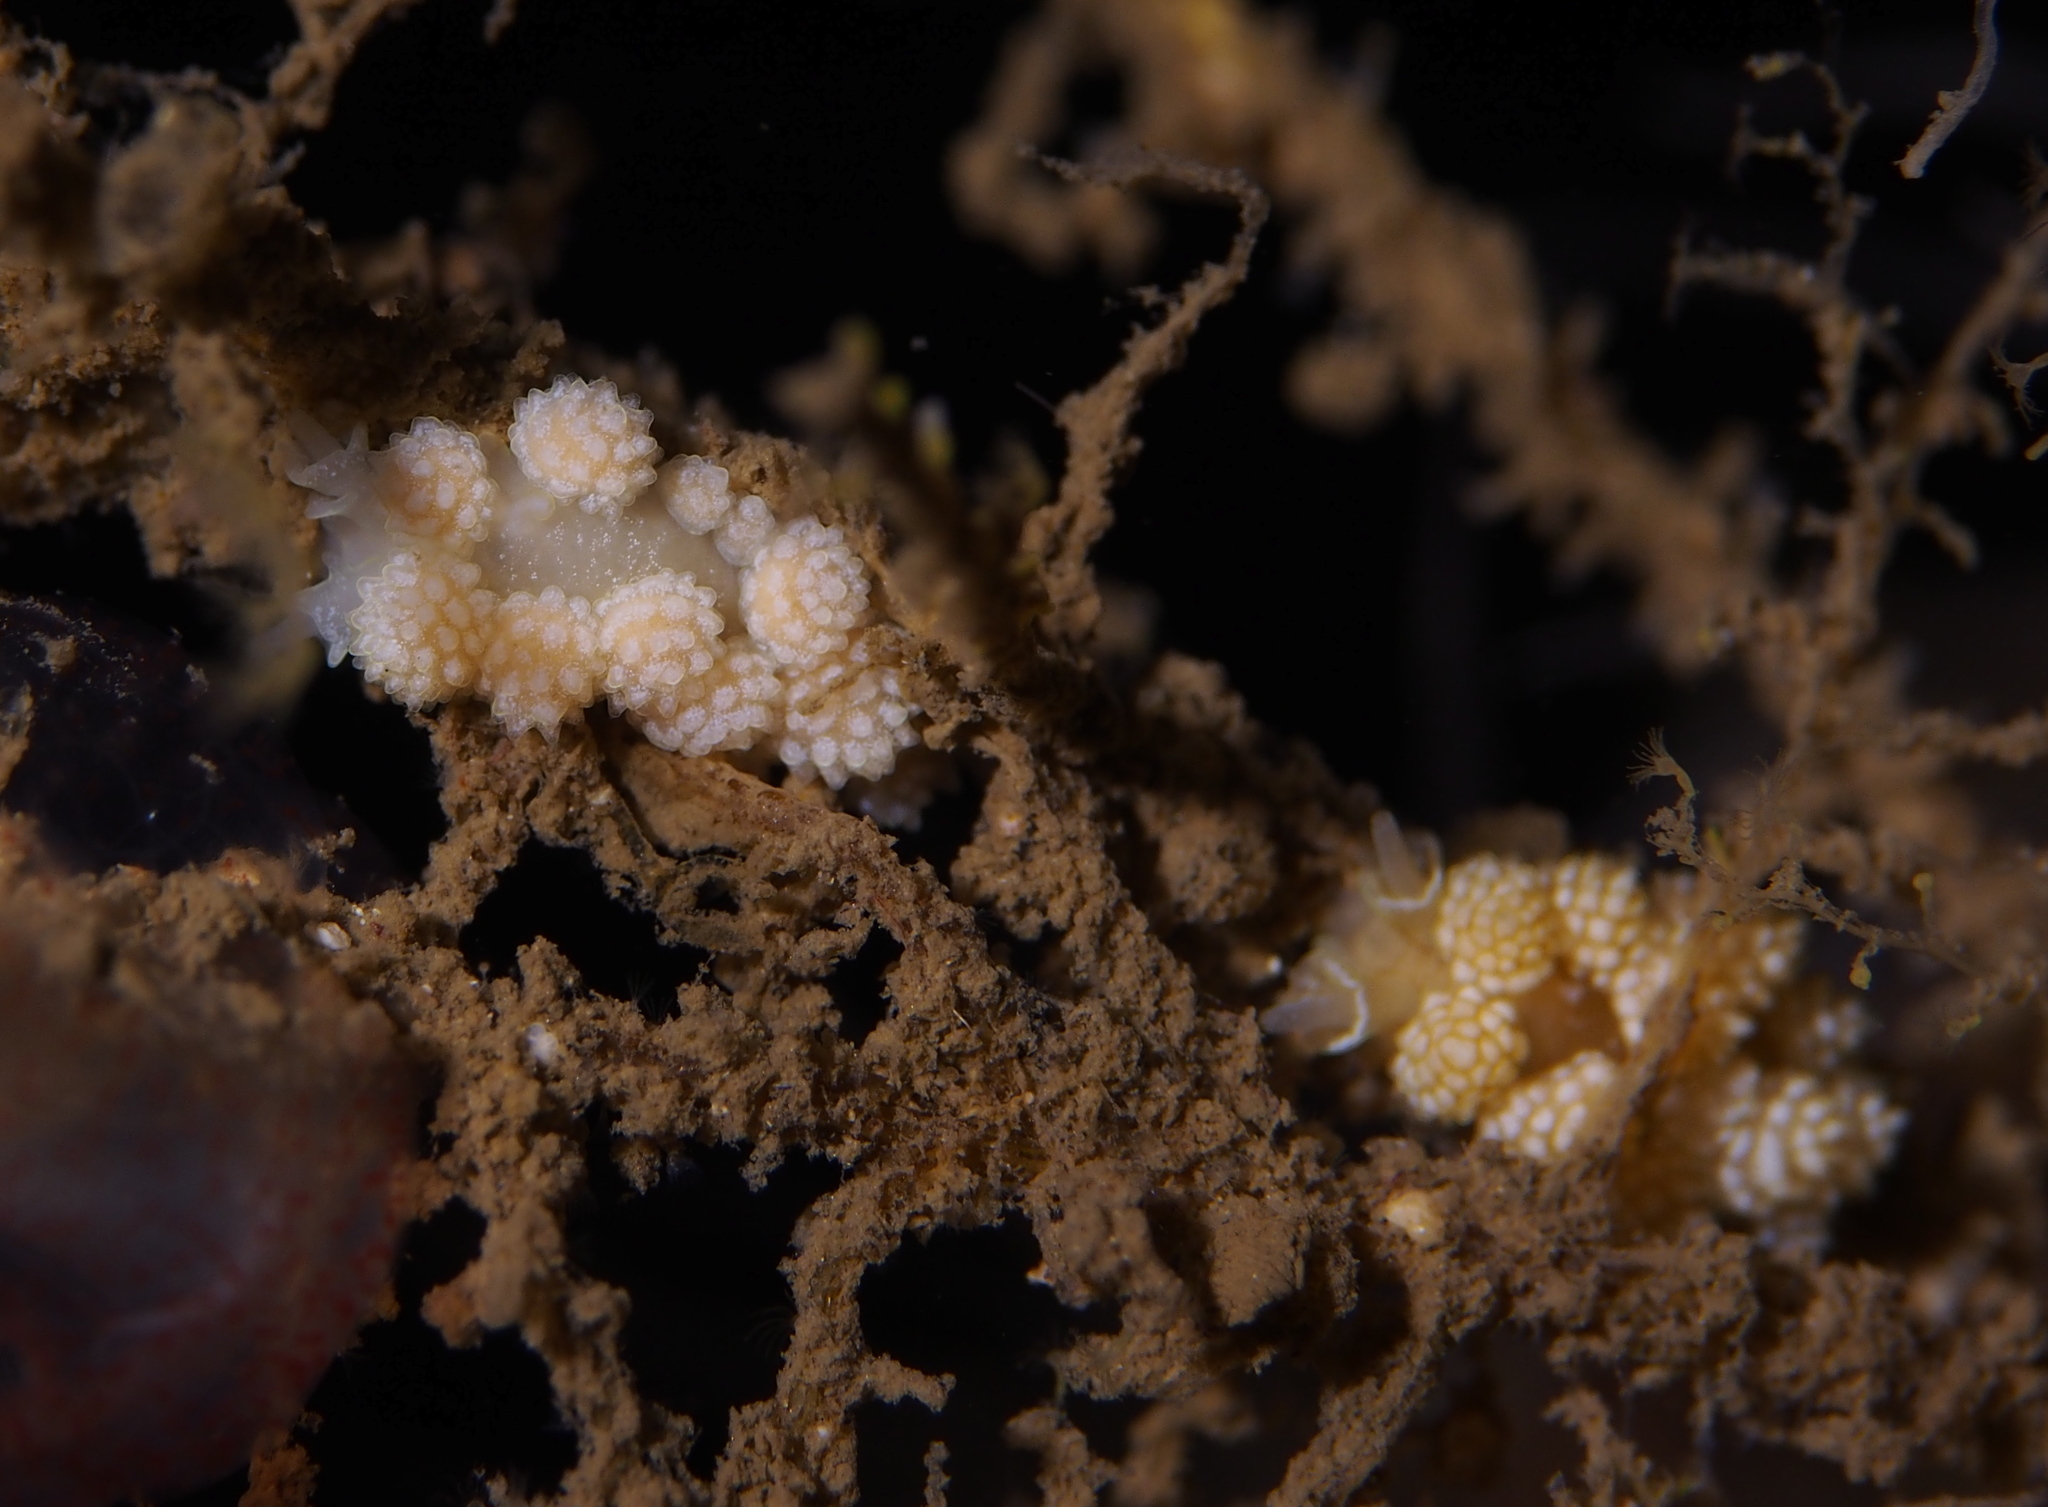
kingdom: Animalia
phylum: Mollusca
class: Gastropoda
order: Nudibranchia
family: Dotidae
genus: Doto
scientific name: Doto fragilis
